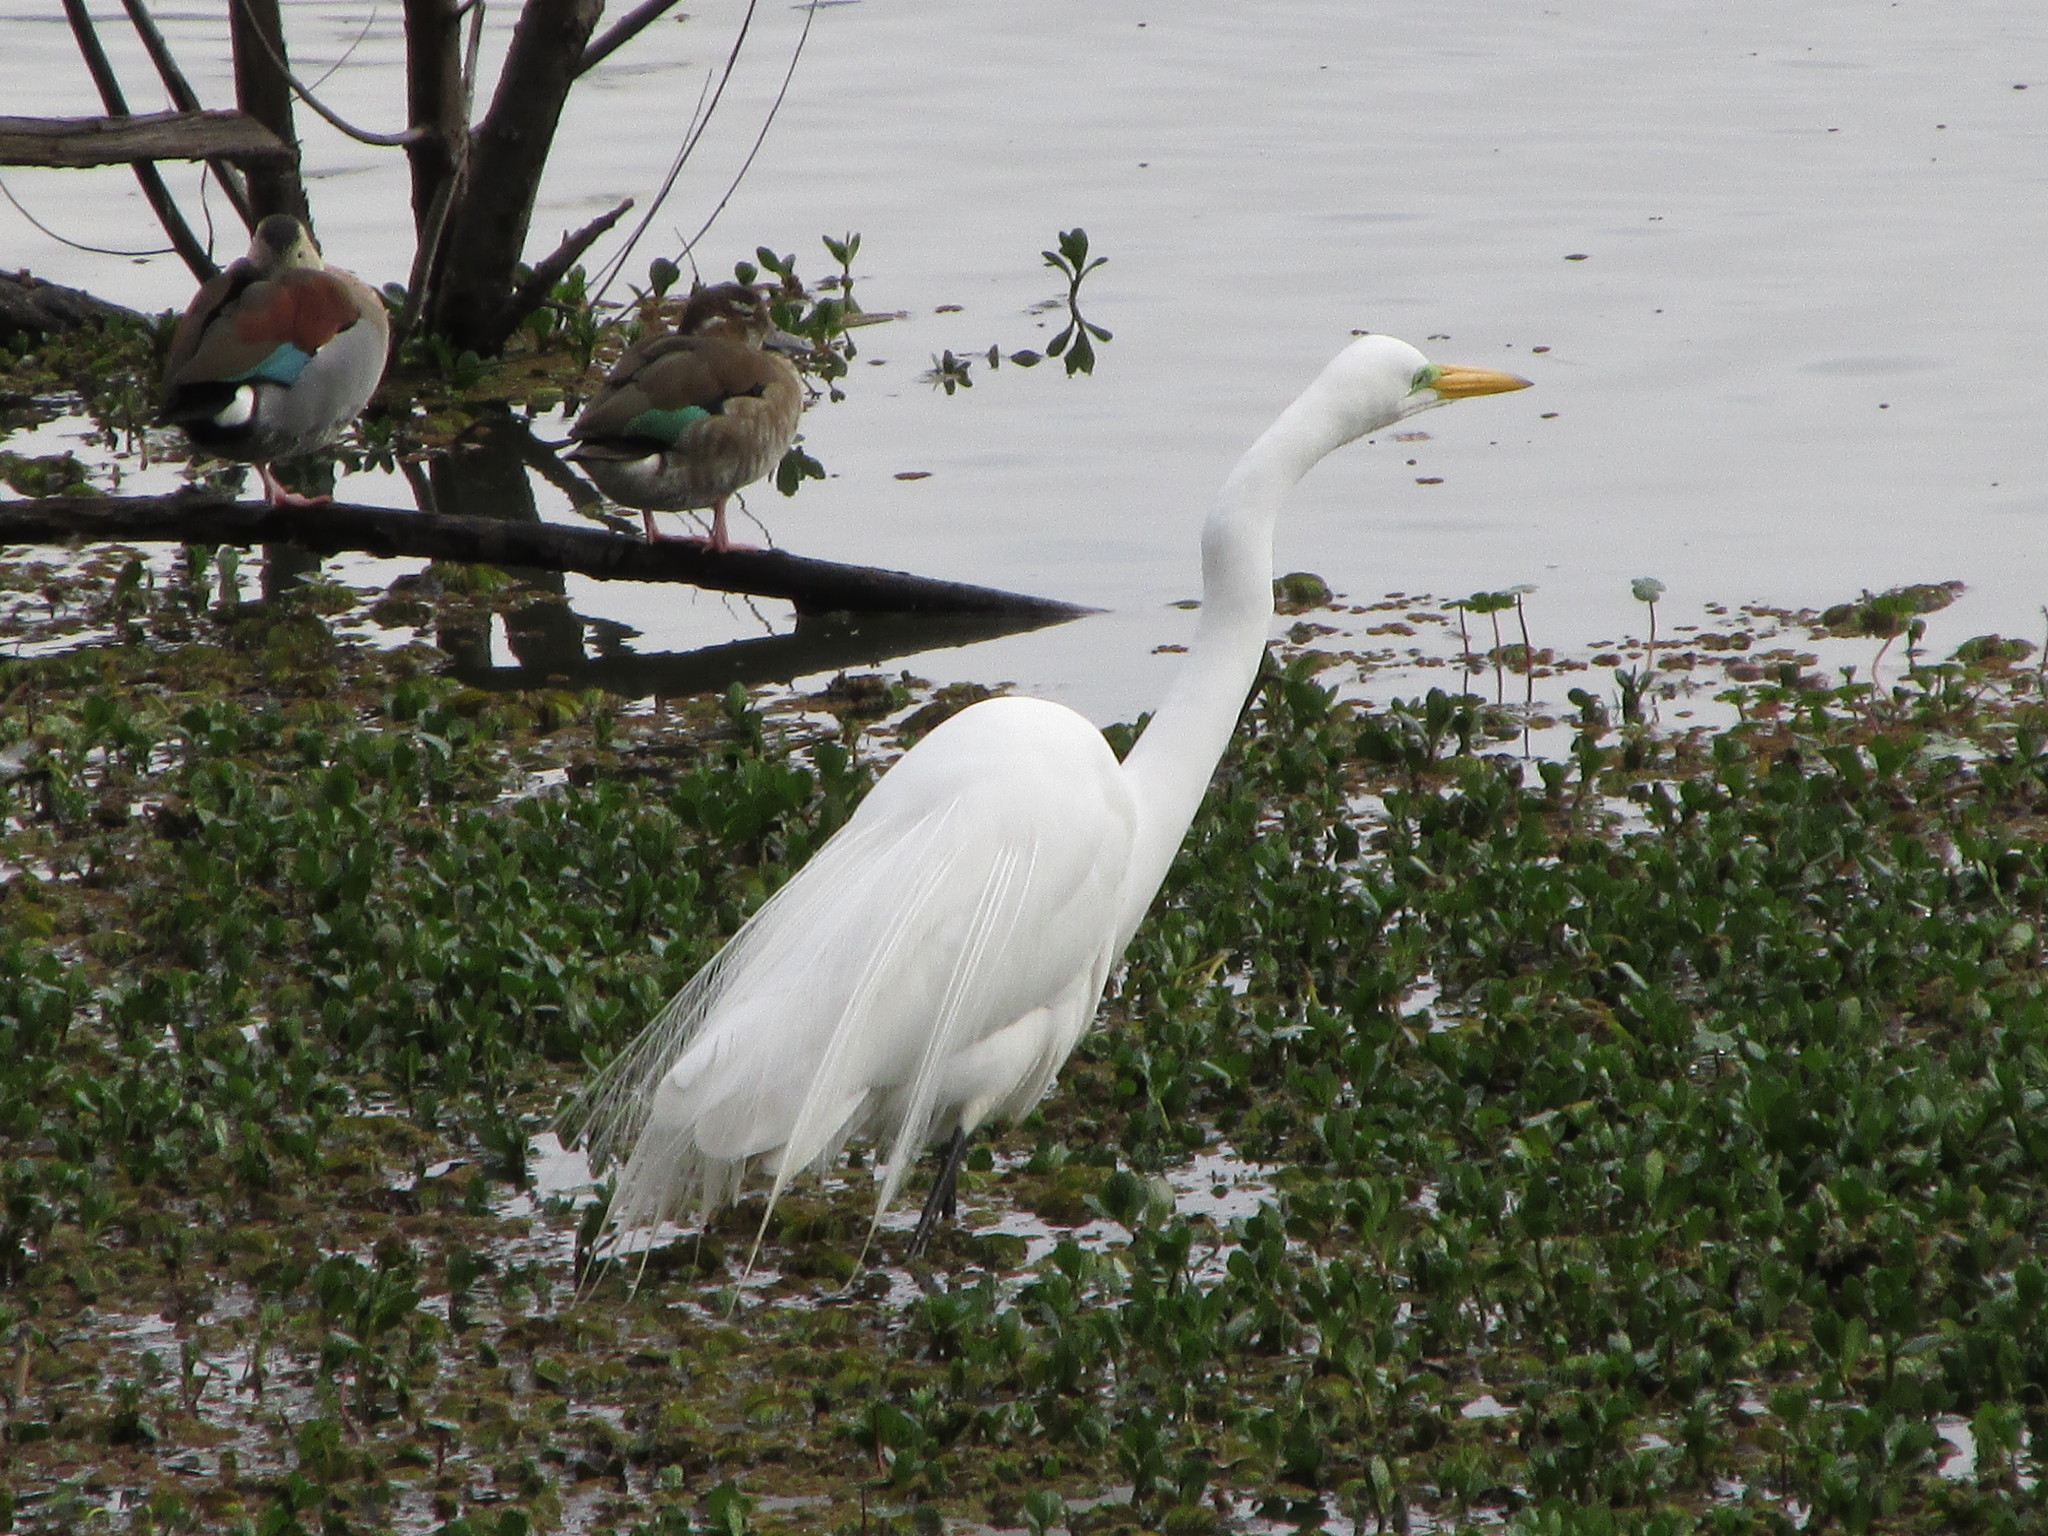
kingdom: Animalia
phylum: Chordata
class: Aves
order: Pelecaniformes
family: Ardeidae
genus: Ardea
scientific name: Ardea alba
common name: Great egret
